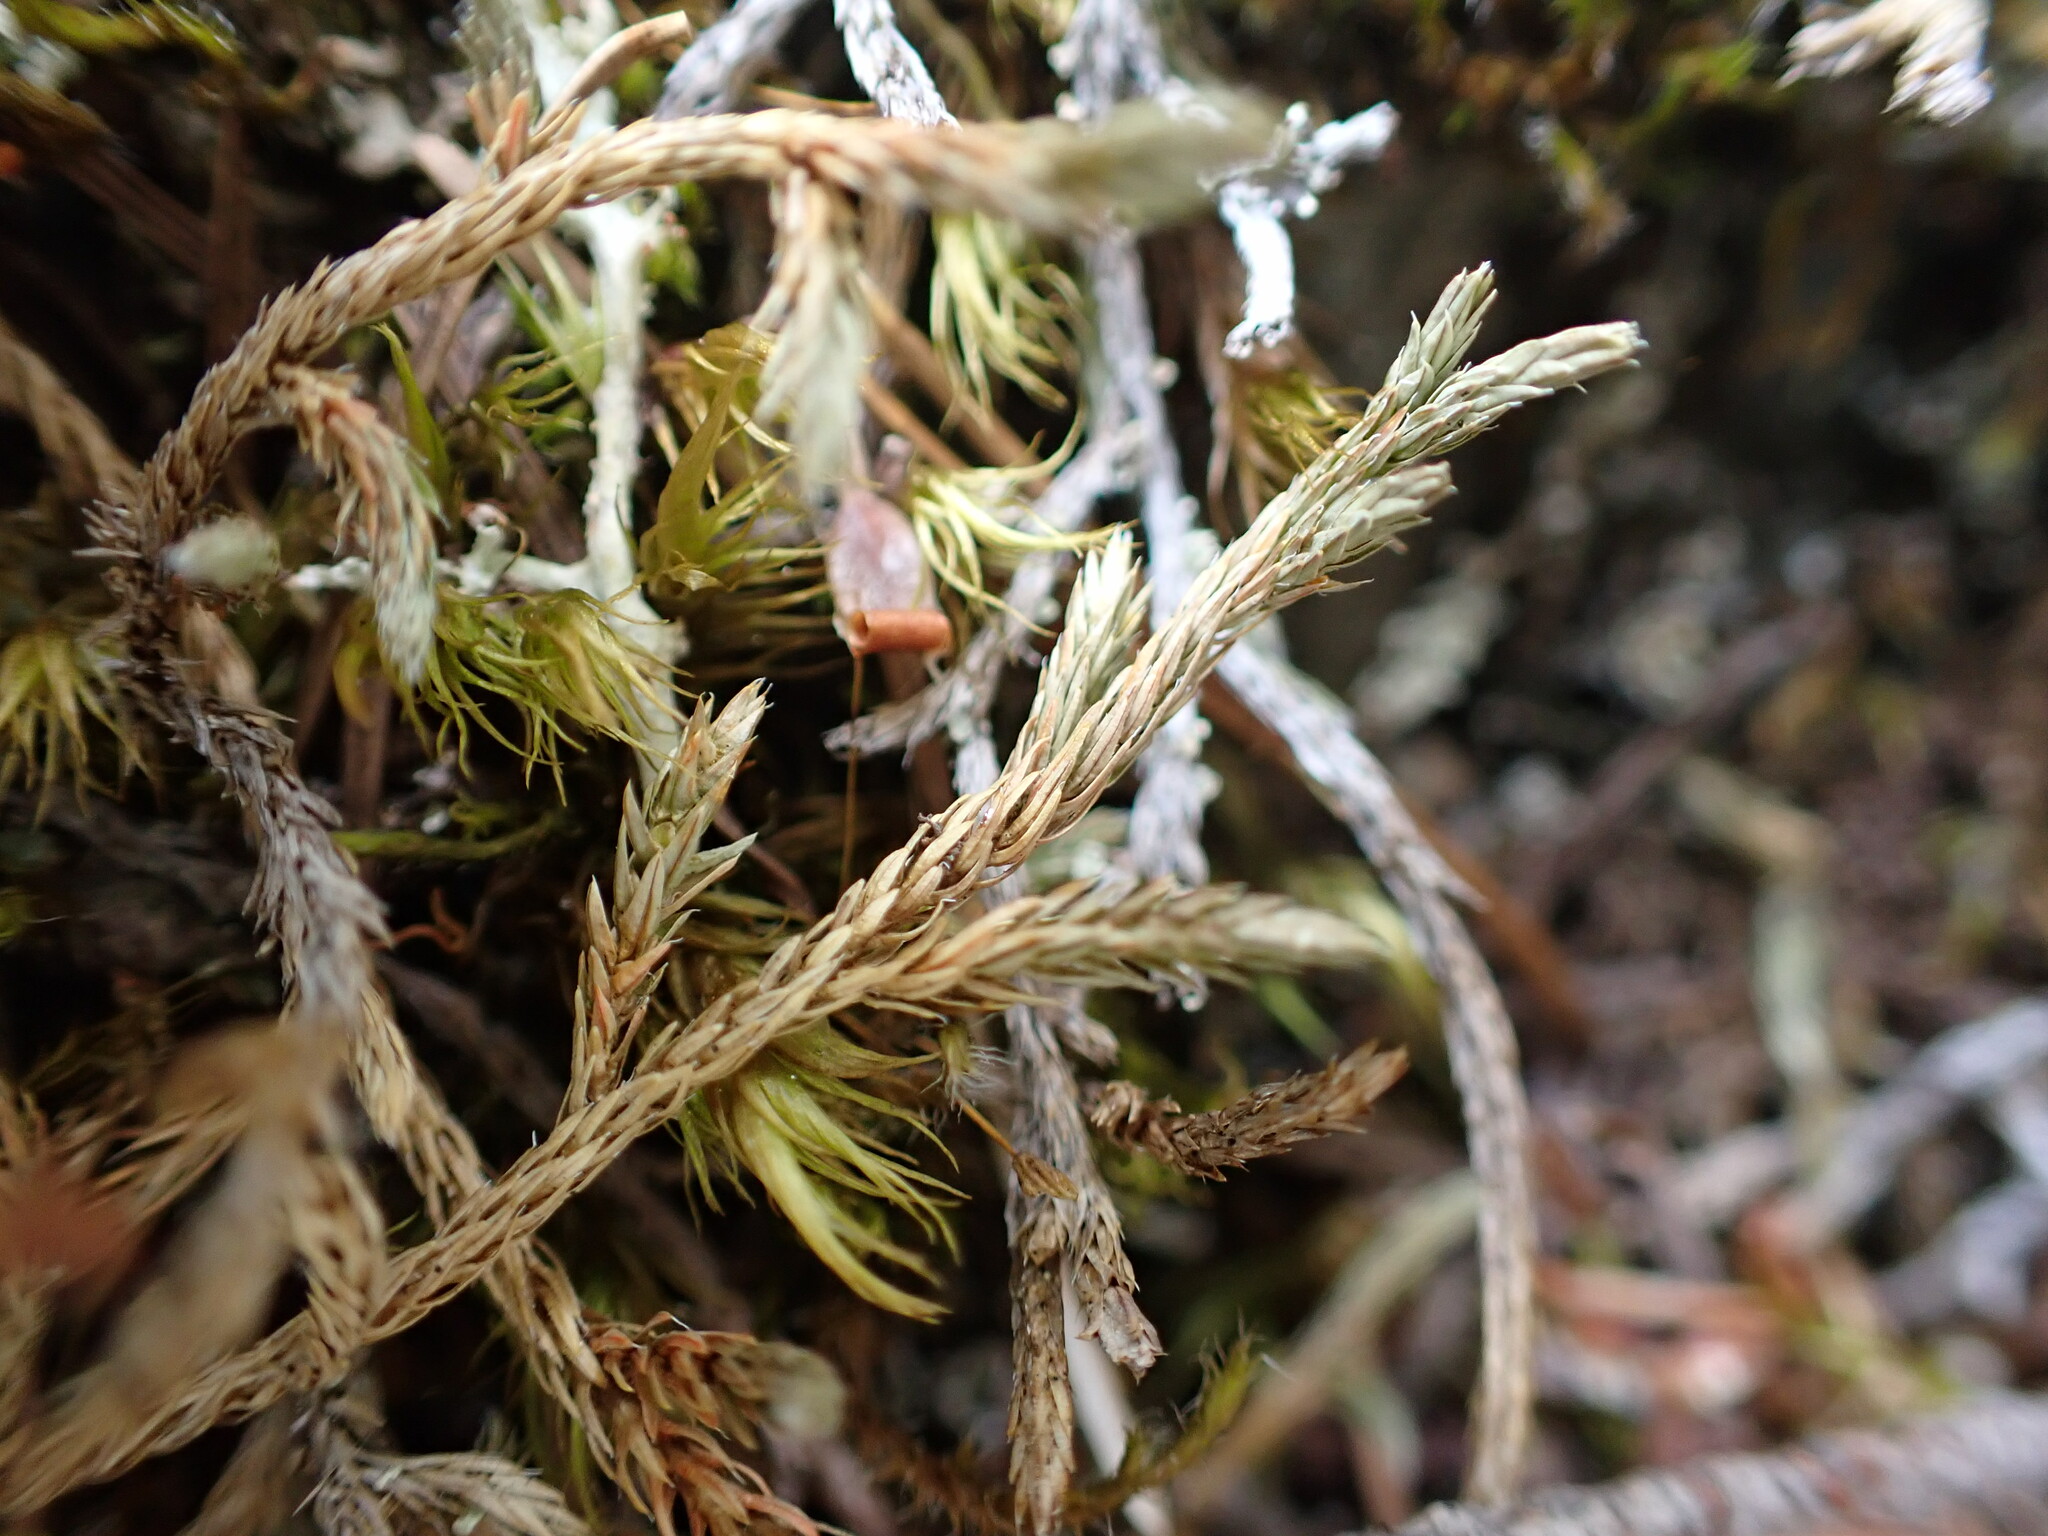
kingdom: Plantae
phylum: Tracheophyta
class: Lycopodiopsida
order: Selaginellales
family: Selaginellaceae
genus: Selaginella
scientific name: Selaginella wallacei
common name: Wallace's selaginella
